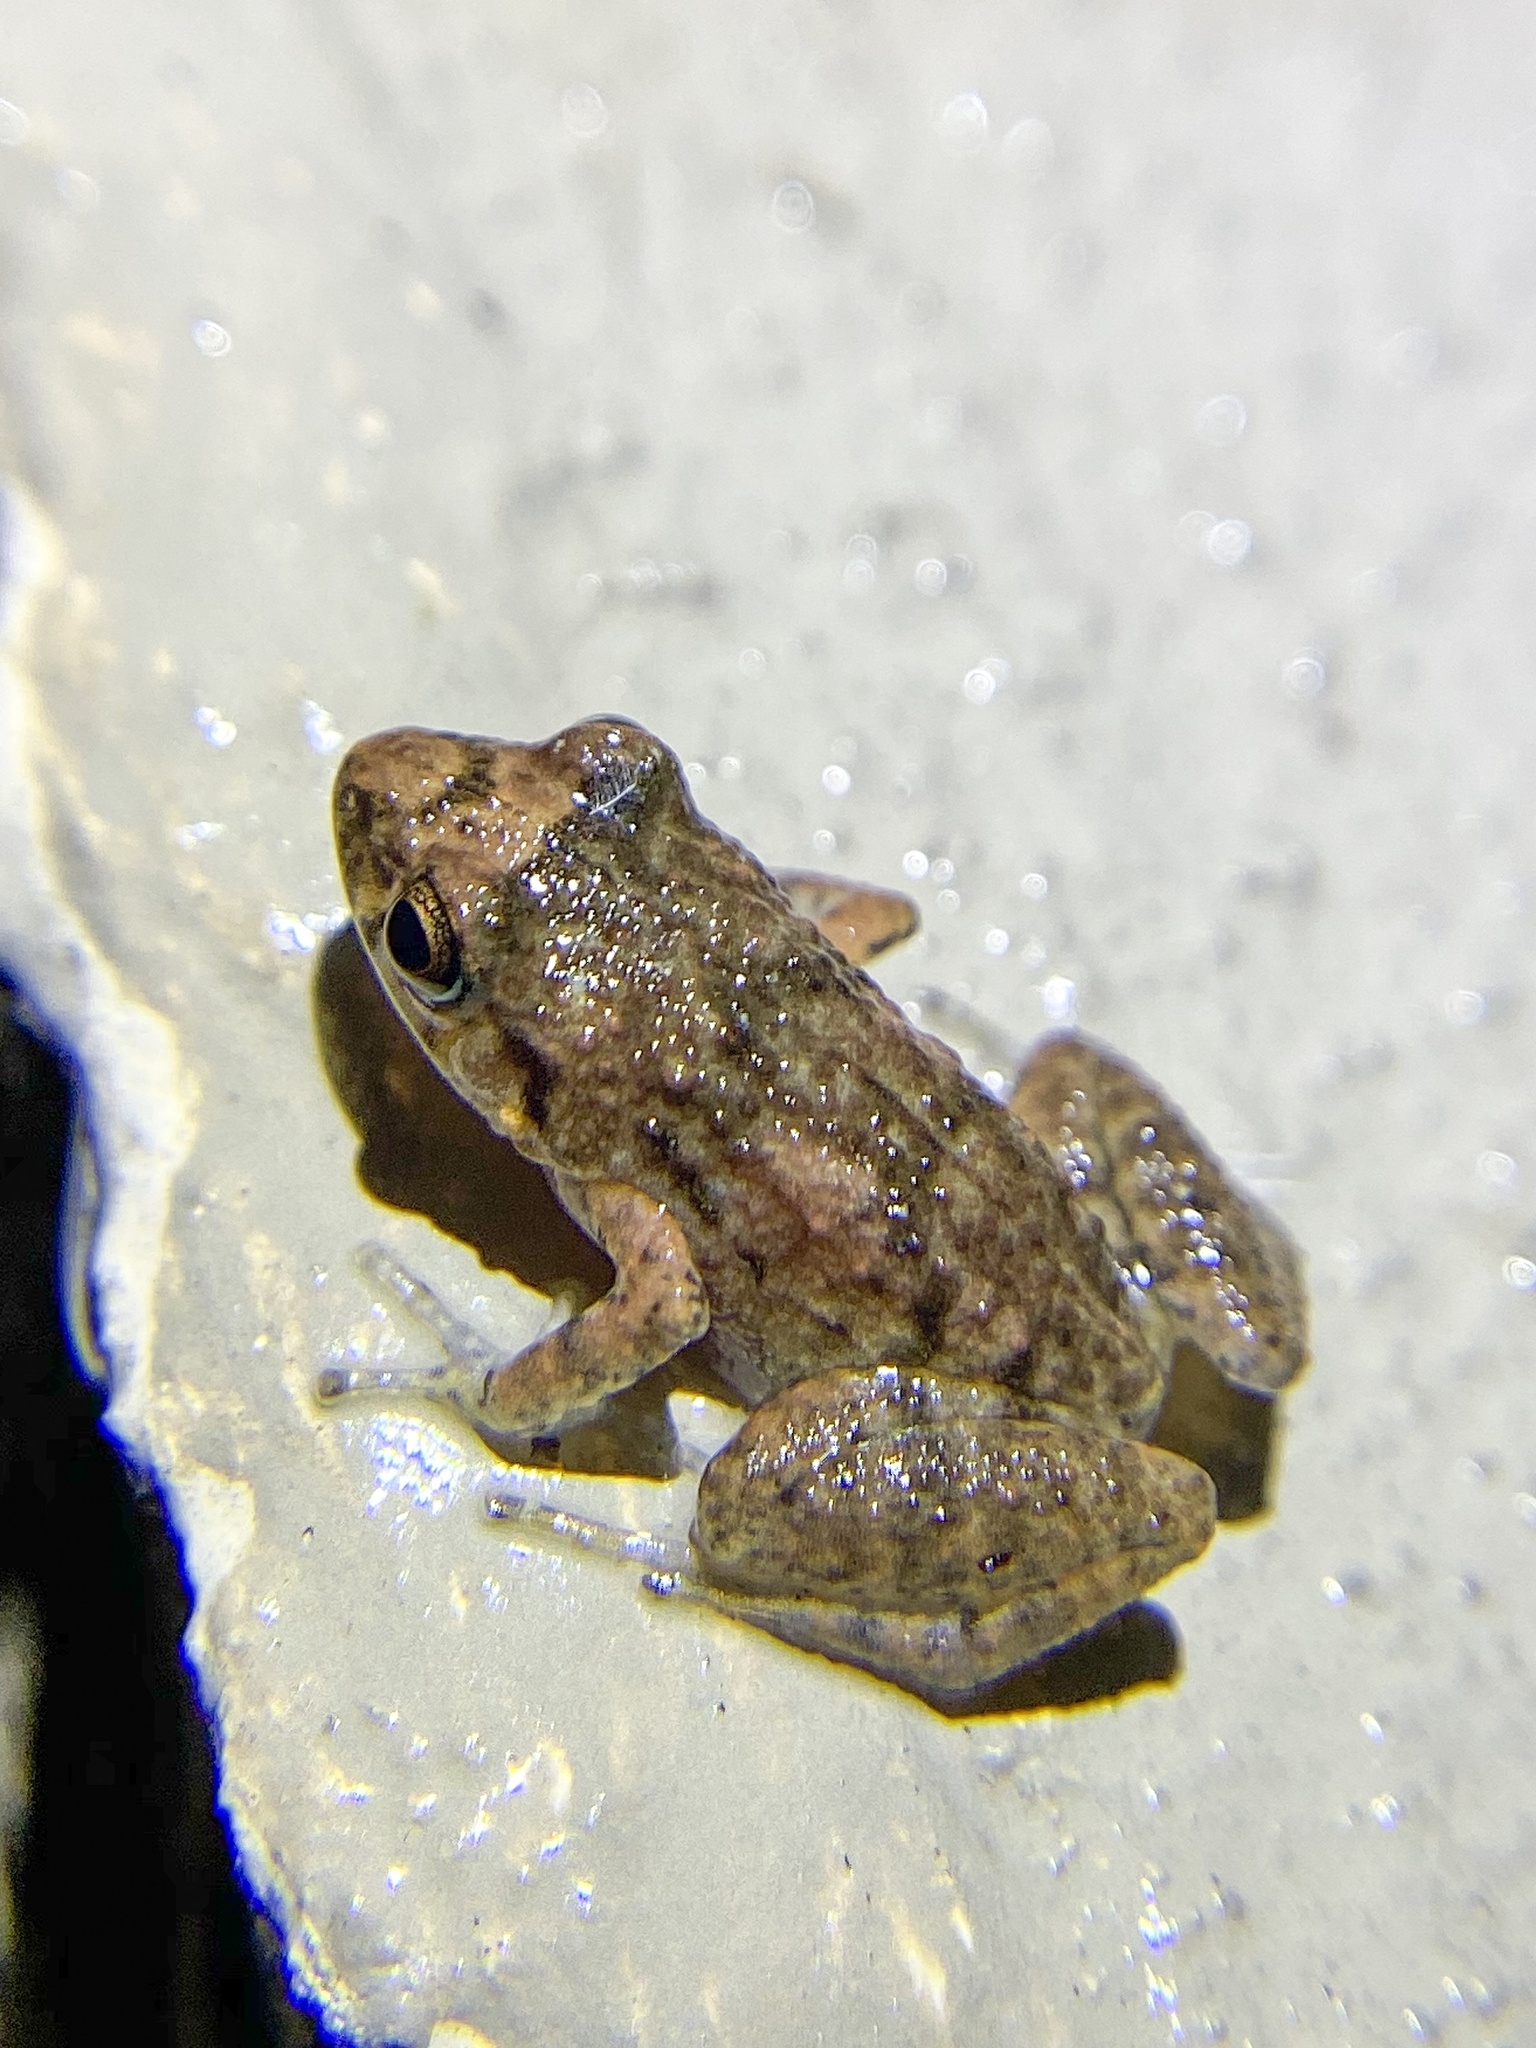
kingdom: Animalia
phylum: Chordata
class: Amphibia
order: Anura
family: Eleutherodactylidae
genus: Eleutherodactylus
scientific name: Eleutherodactylus planirostris
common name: Greenhouse frog
